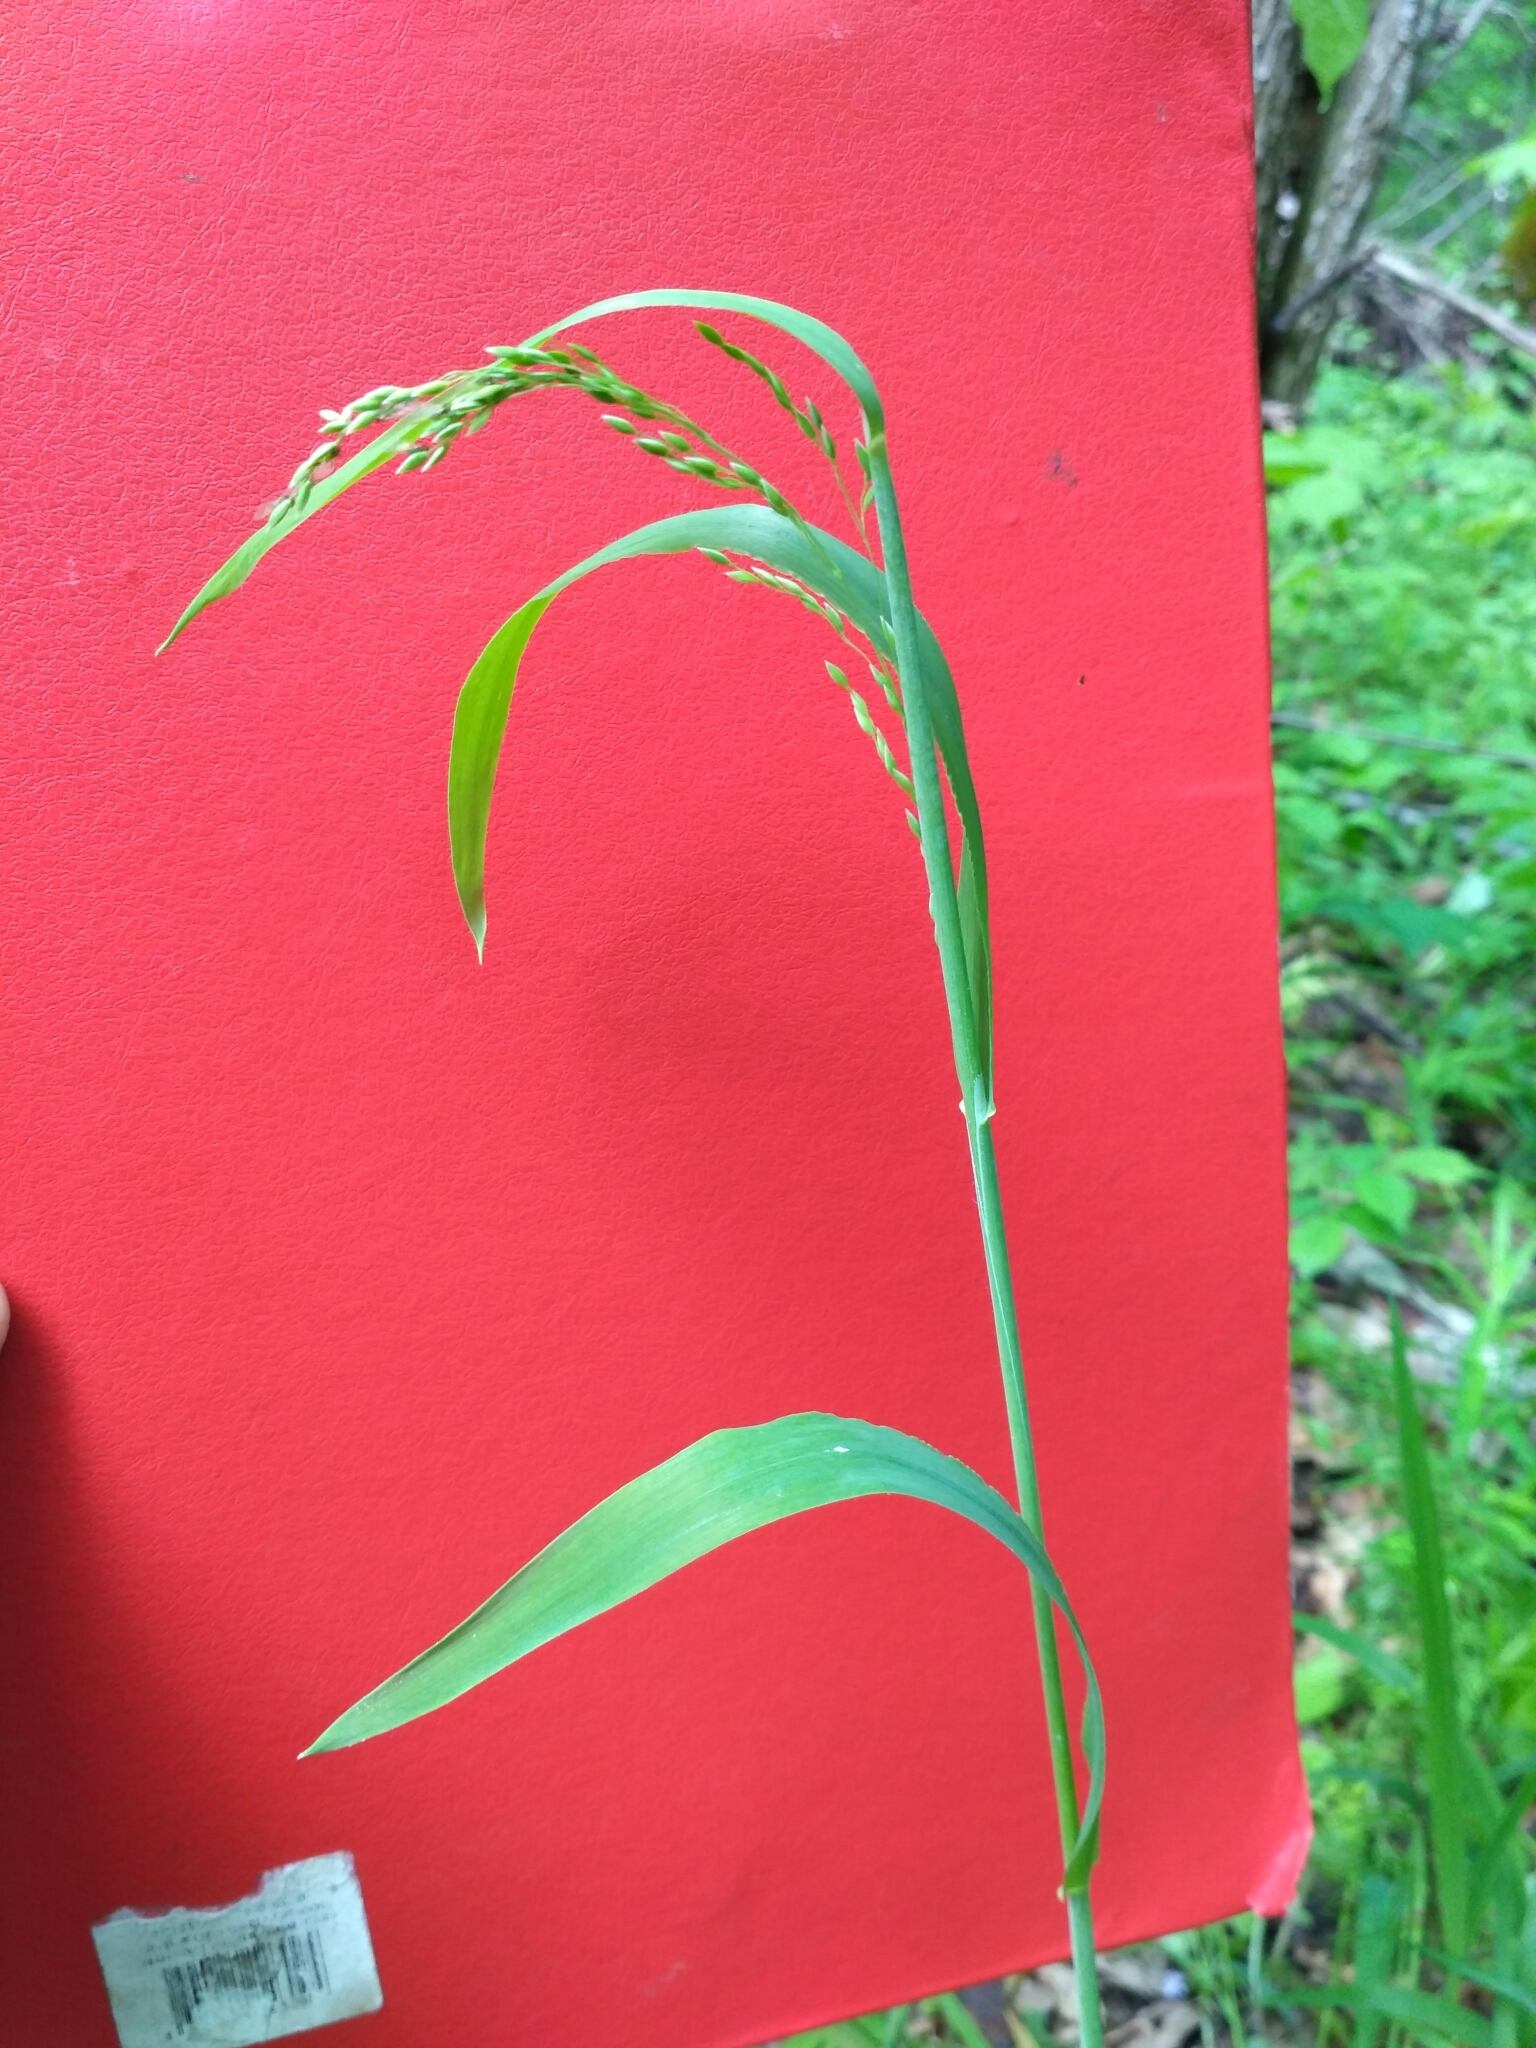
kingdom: Plantae
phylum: Tracheophyta
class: Liliopsida
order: Poales
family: Poaceae
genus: Milium
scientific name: Milium effusum
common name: Wood millet
